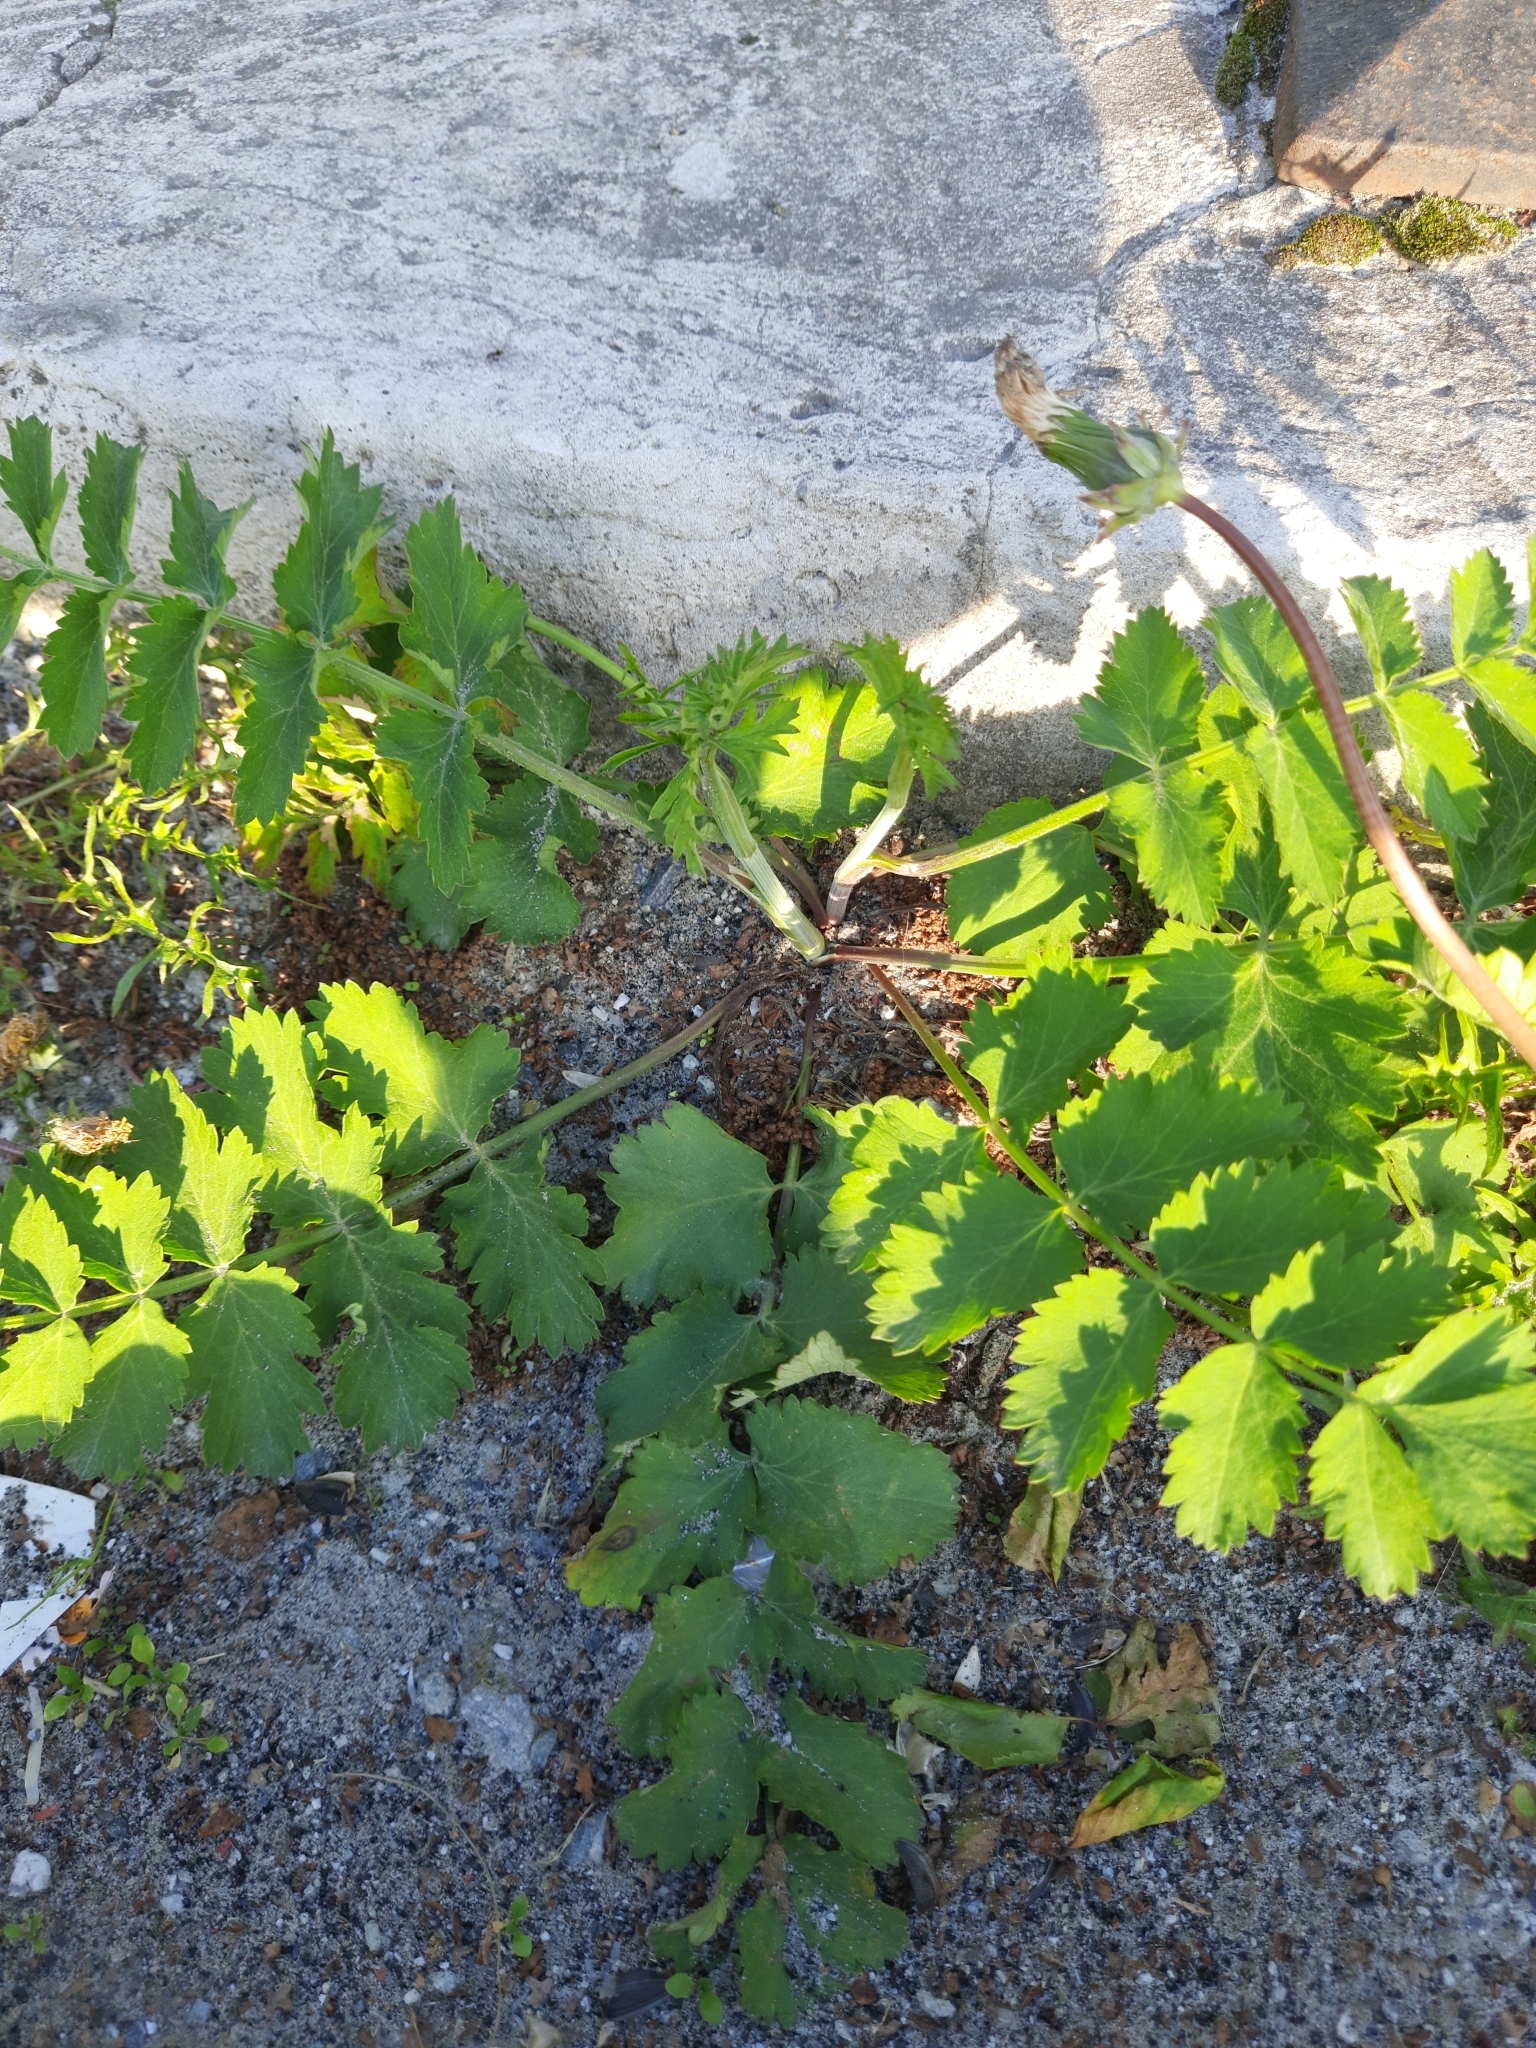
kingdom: Plantae
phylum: Tracheophyta
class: Magnoliopsida
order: Apiales
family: Apiaceae
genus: Pastinaca
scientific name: Pastinaca sativa
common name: Wild parsnip
